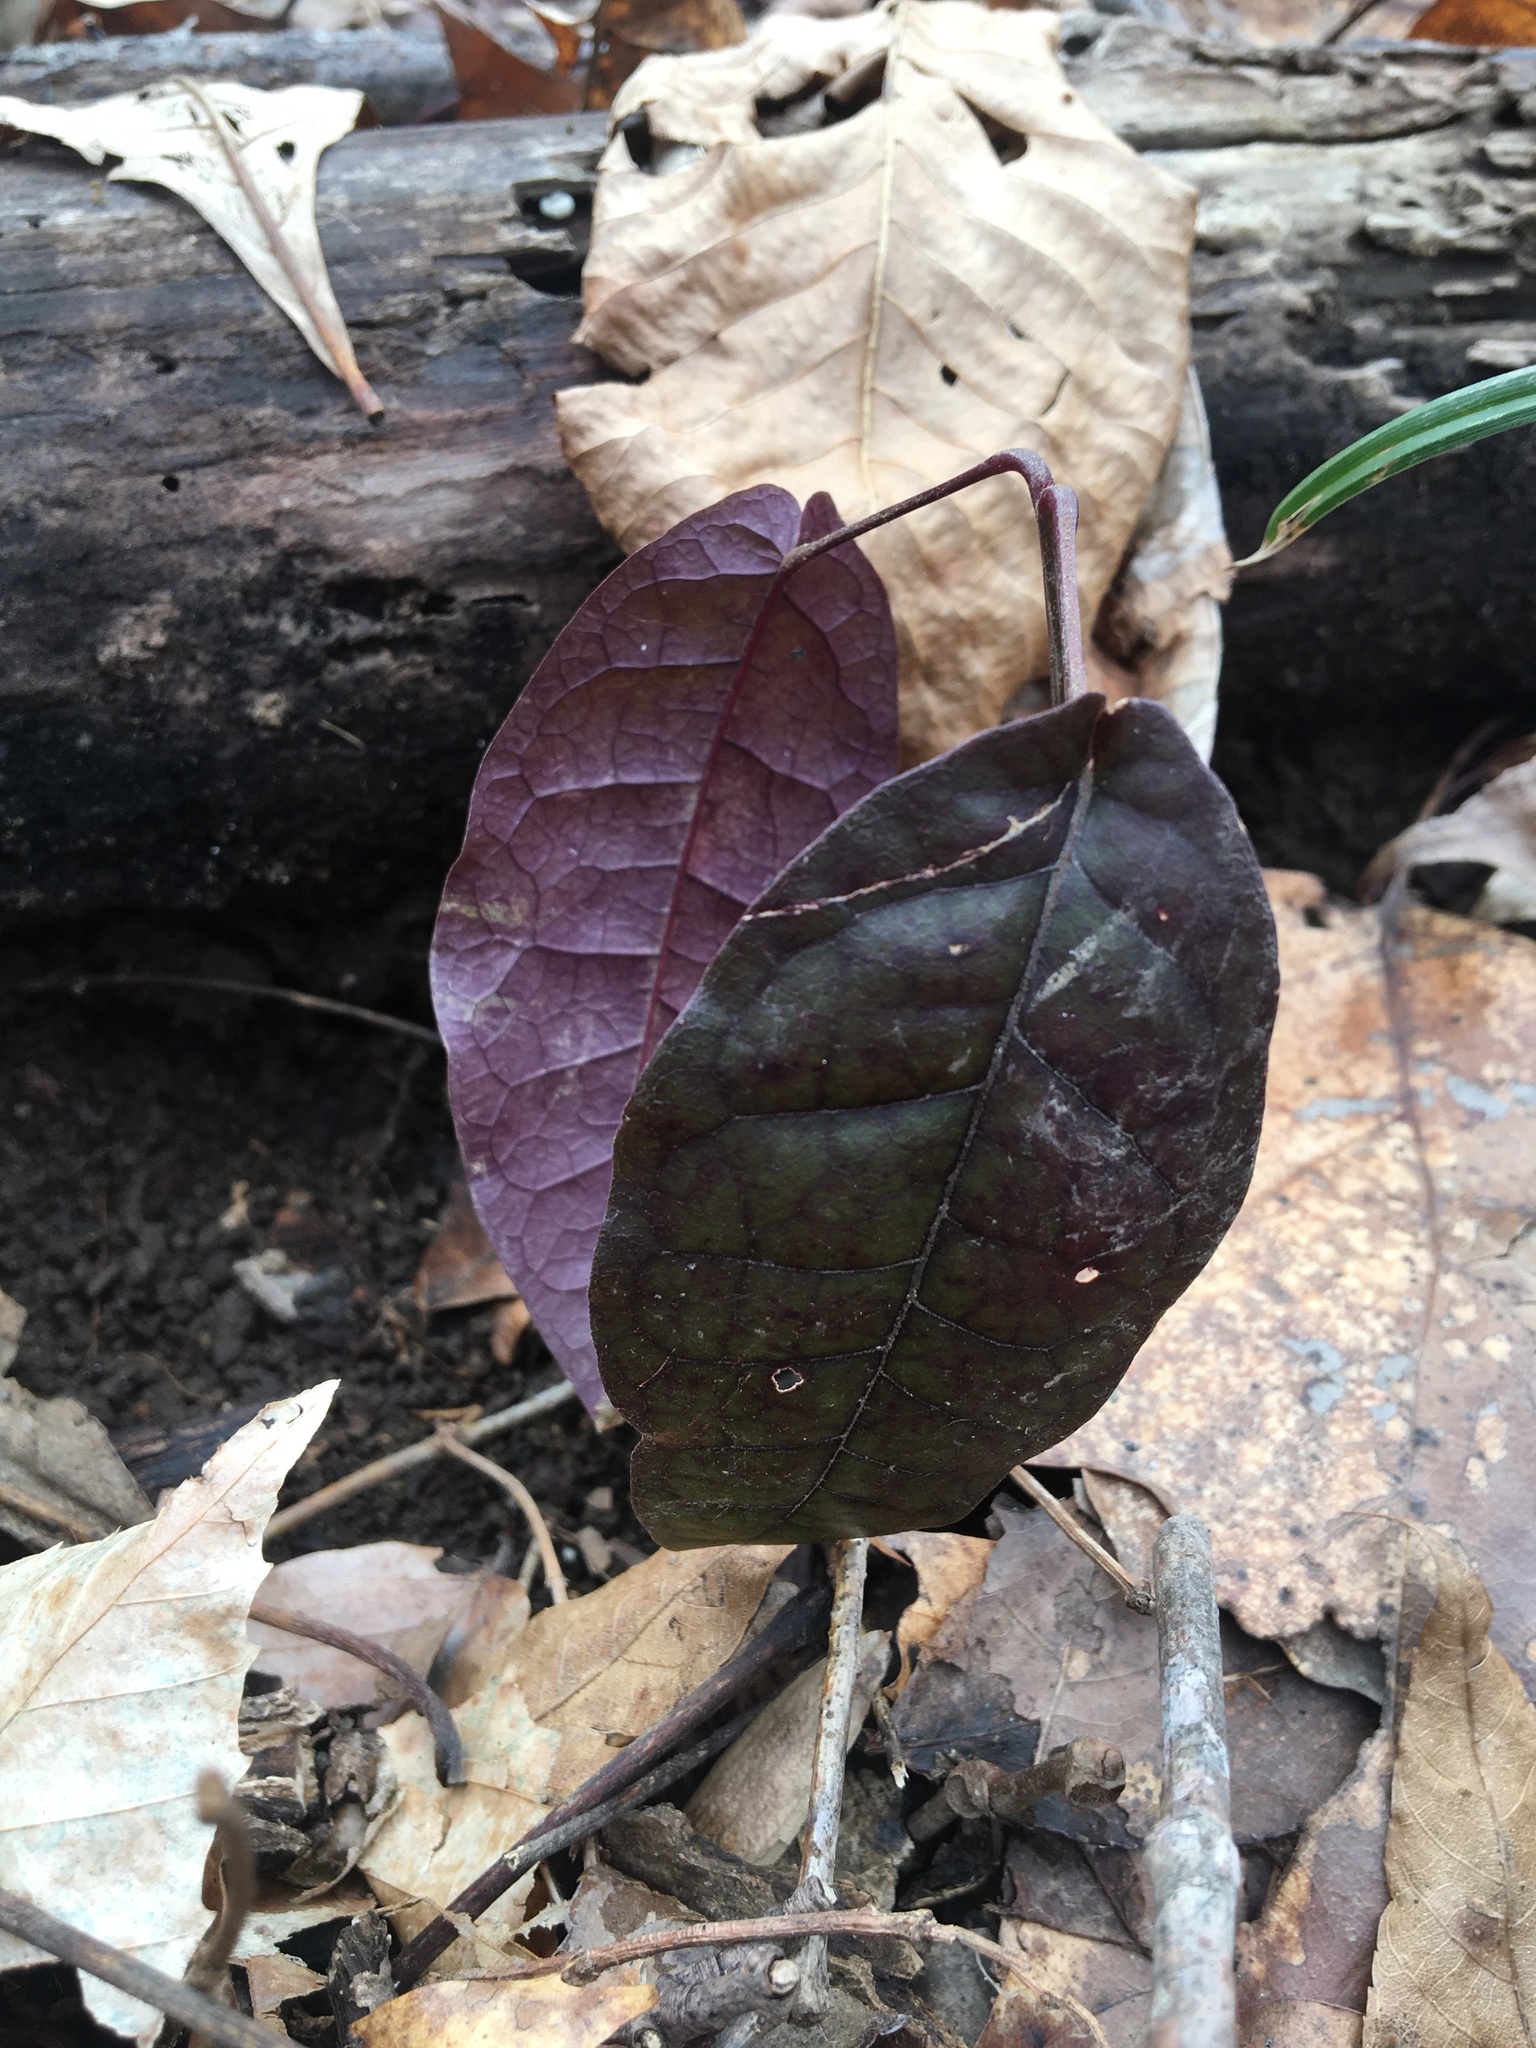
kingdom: Plantae
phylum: Tracheophyta
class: Magnoliopsida
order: Lamiales
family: Bignoniaceae
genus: Bignonia
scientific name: Bignonia capreolata
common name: Crossvine
